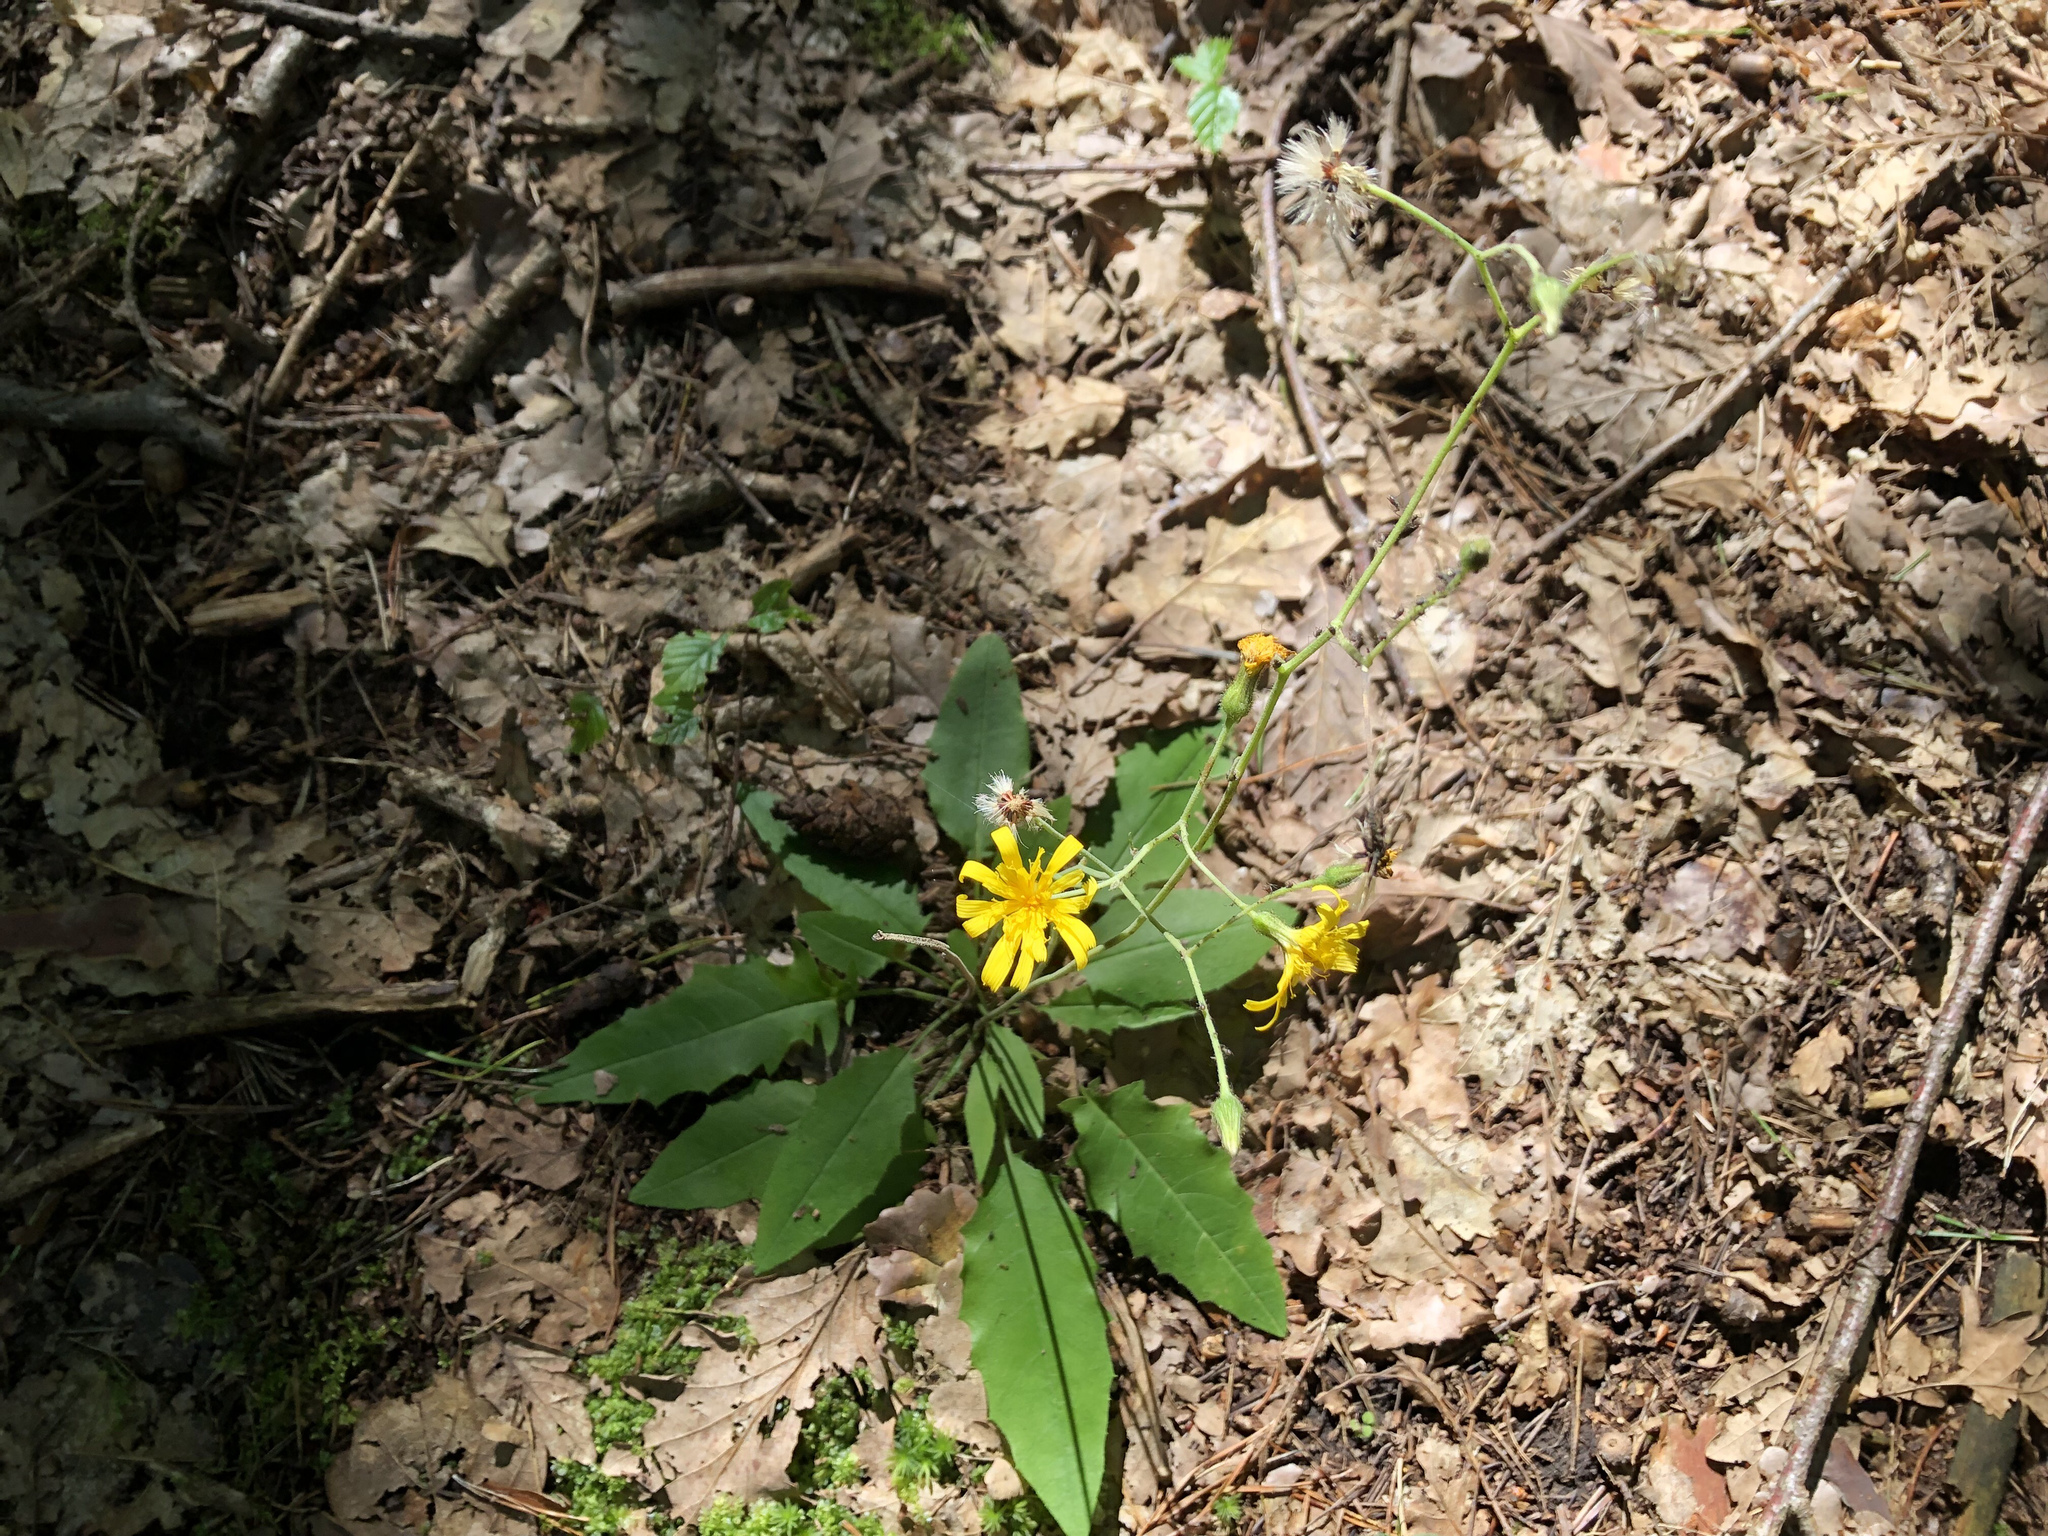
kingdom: Plantae
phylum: Tracheophyta
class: Magnoliopsida
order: Asterales
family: Asteraceae
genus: Hieracium
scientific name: Hieracium murorum
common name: Wall hawkweed
